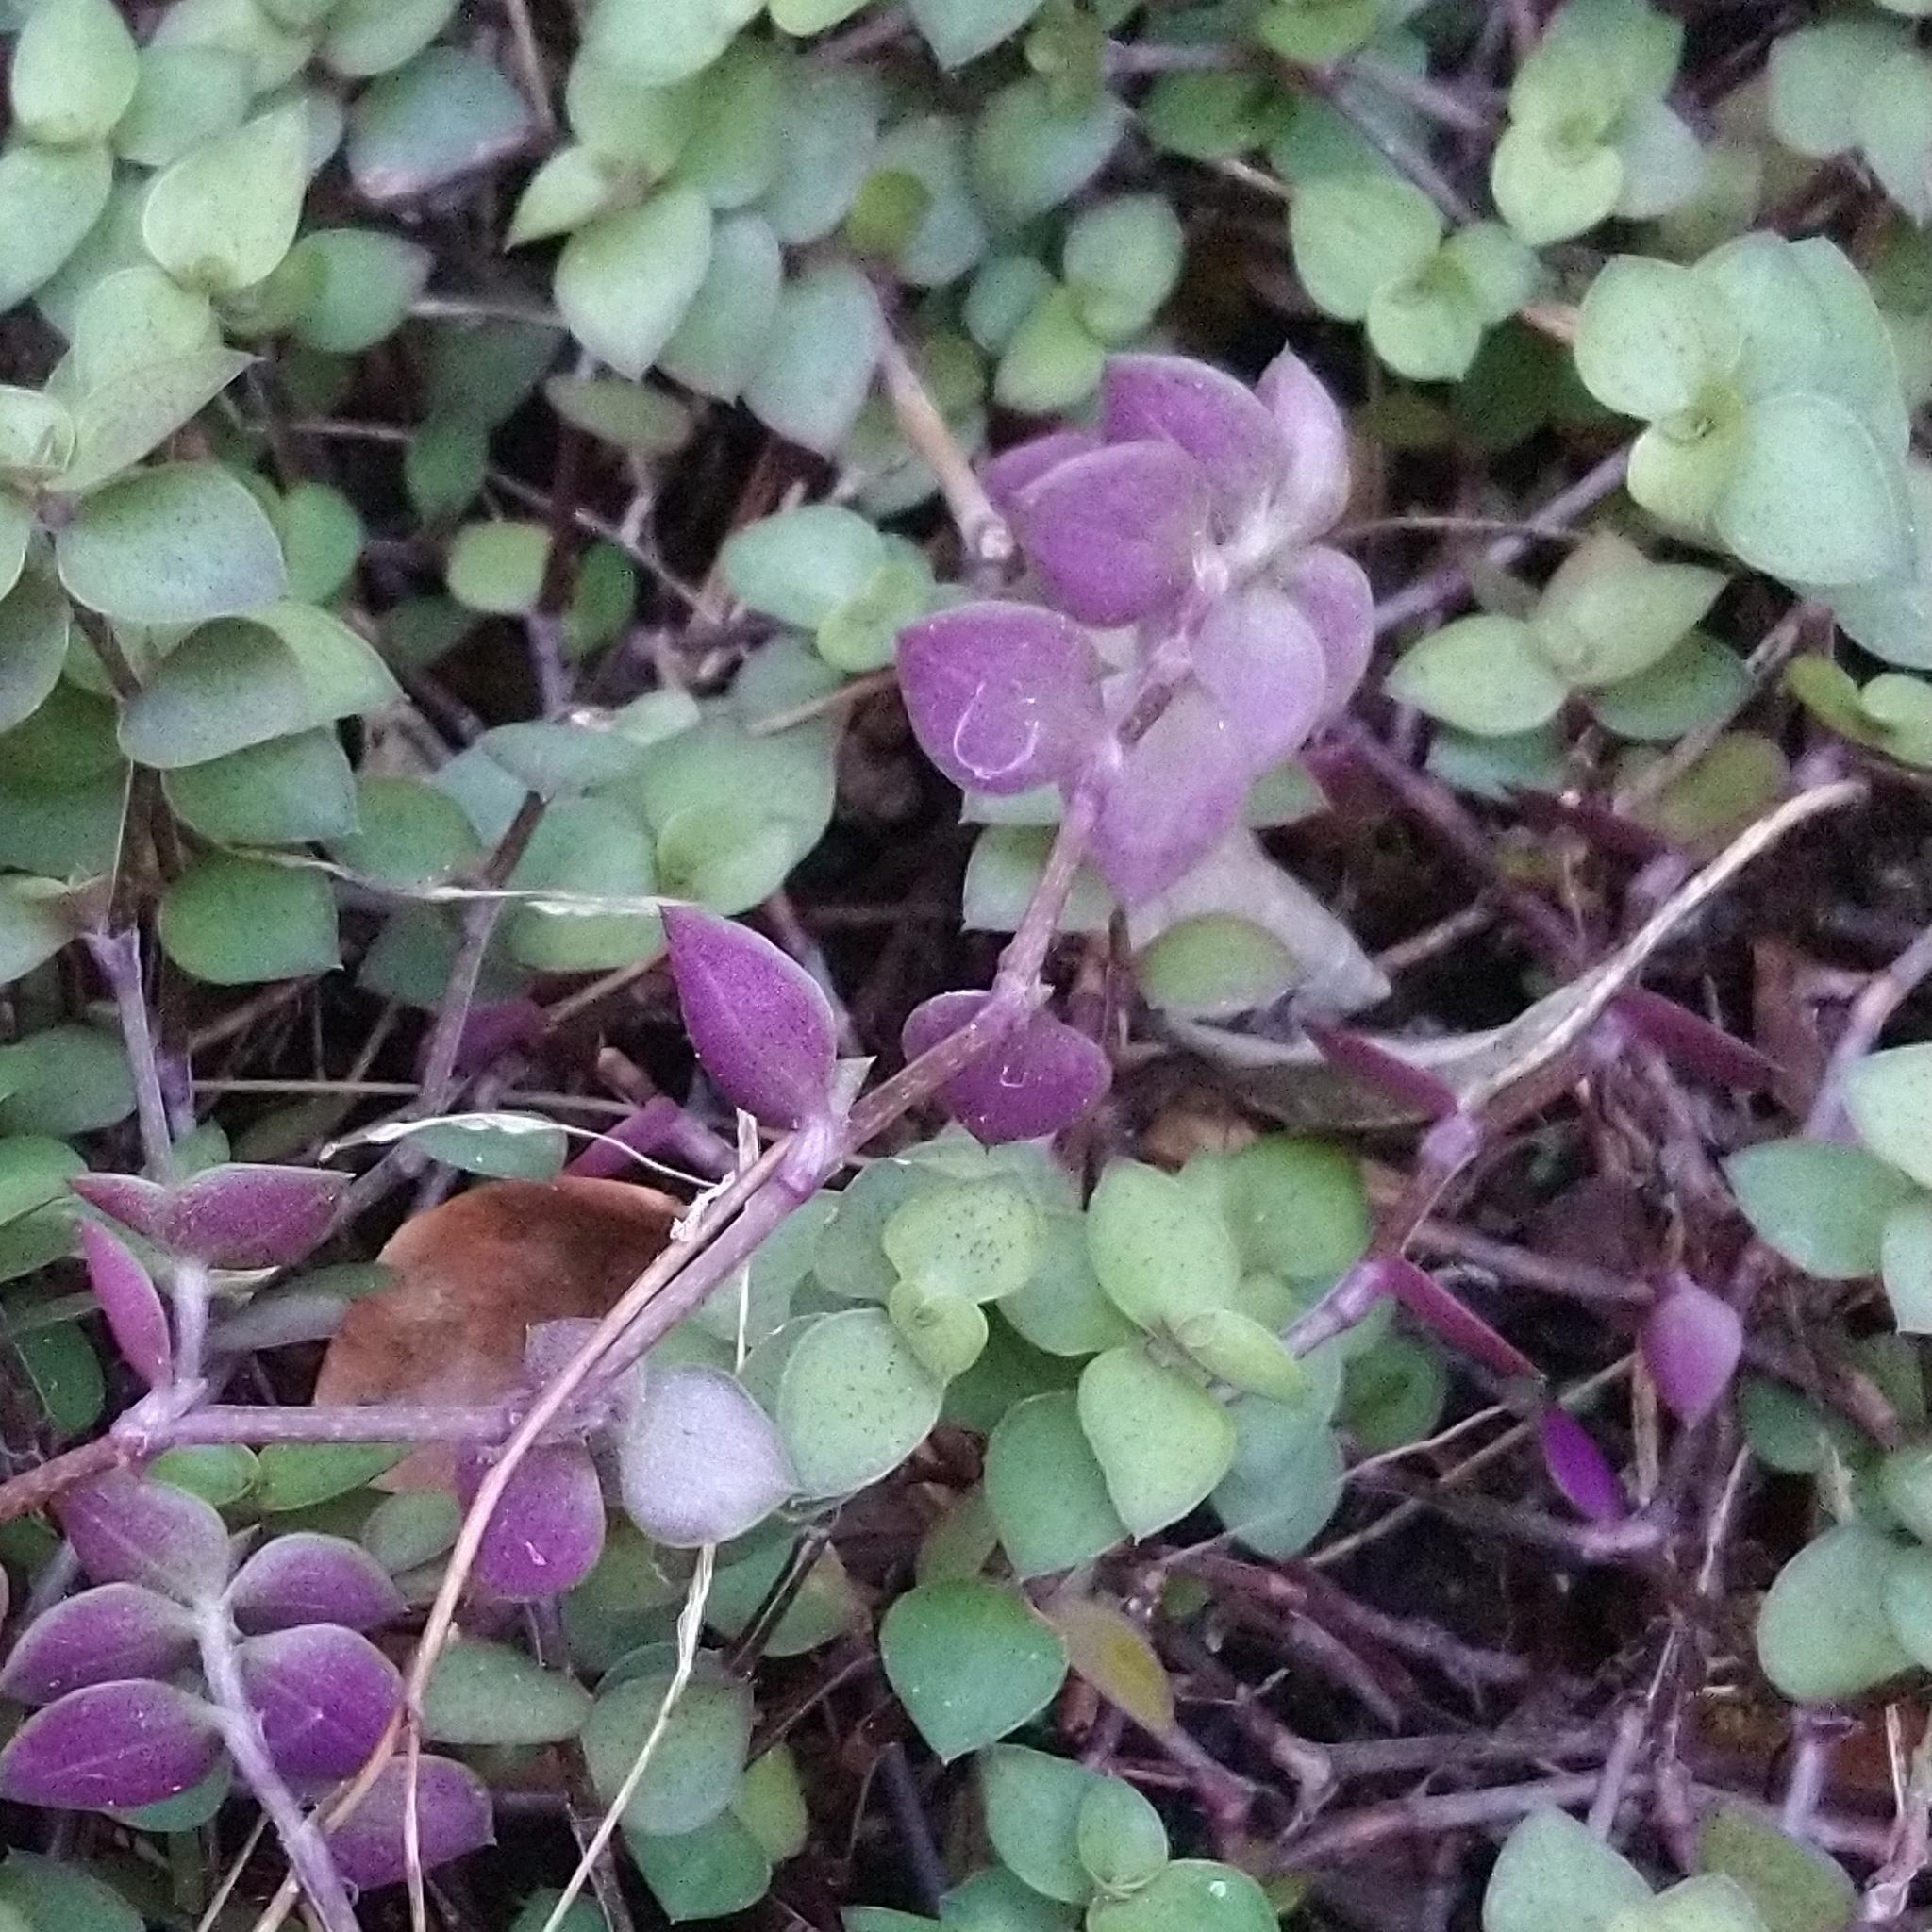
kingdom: Plantae
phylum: Tracheophyta
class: Liliopsida
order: Commelinales
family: Commelinaceae
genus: Callisia
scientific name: Callisia repens
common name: Creeping inchplant
